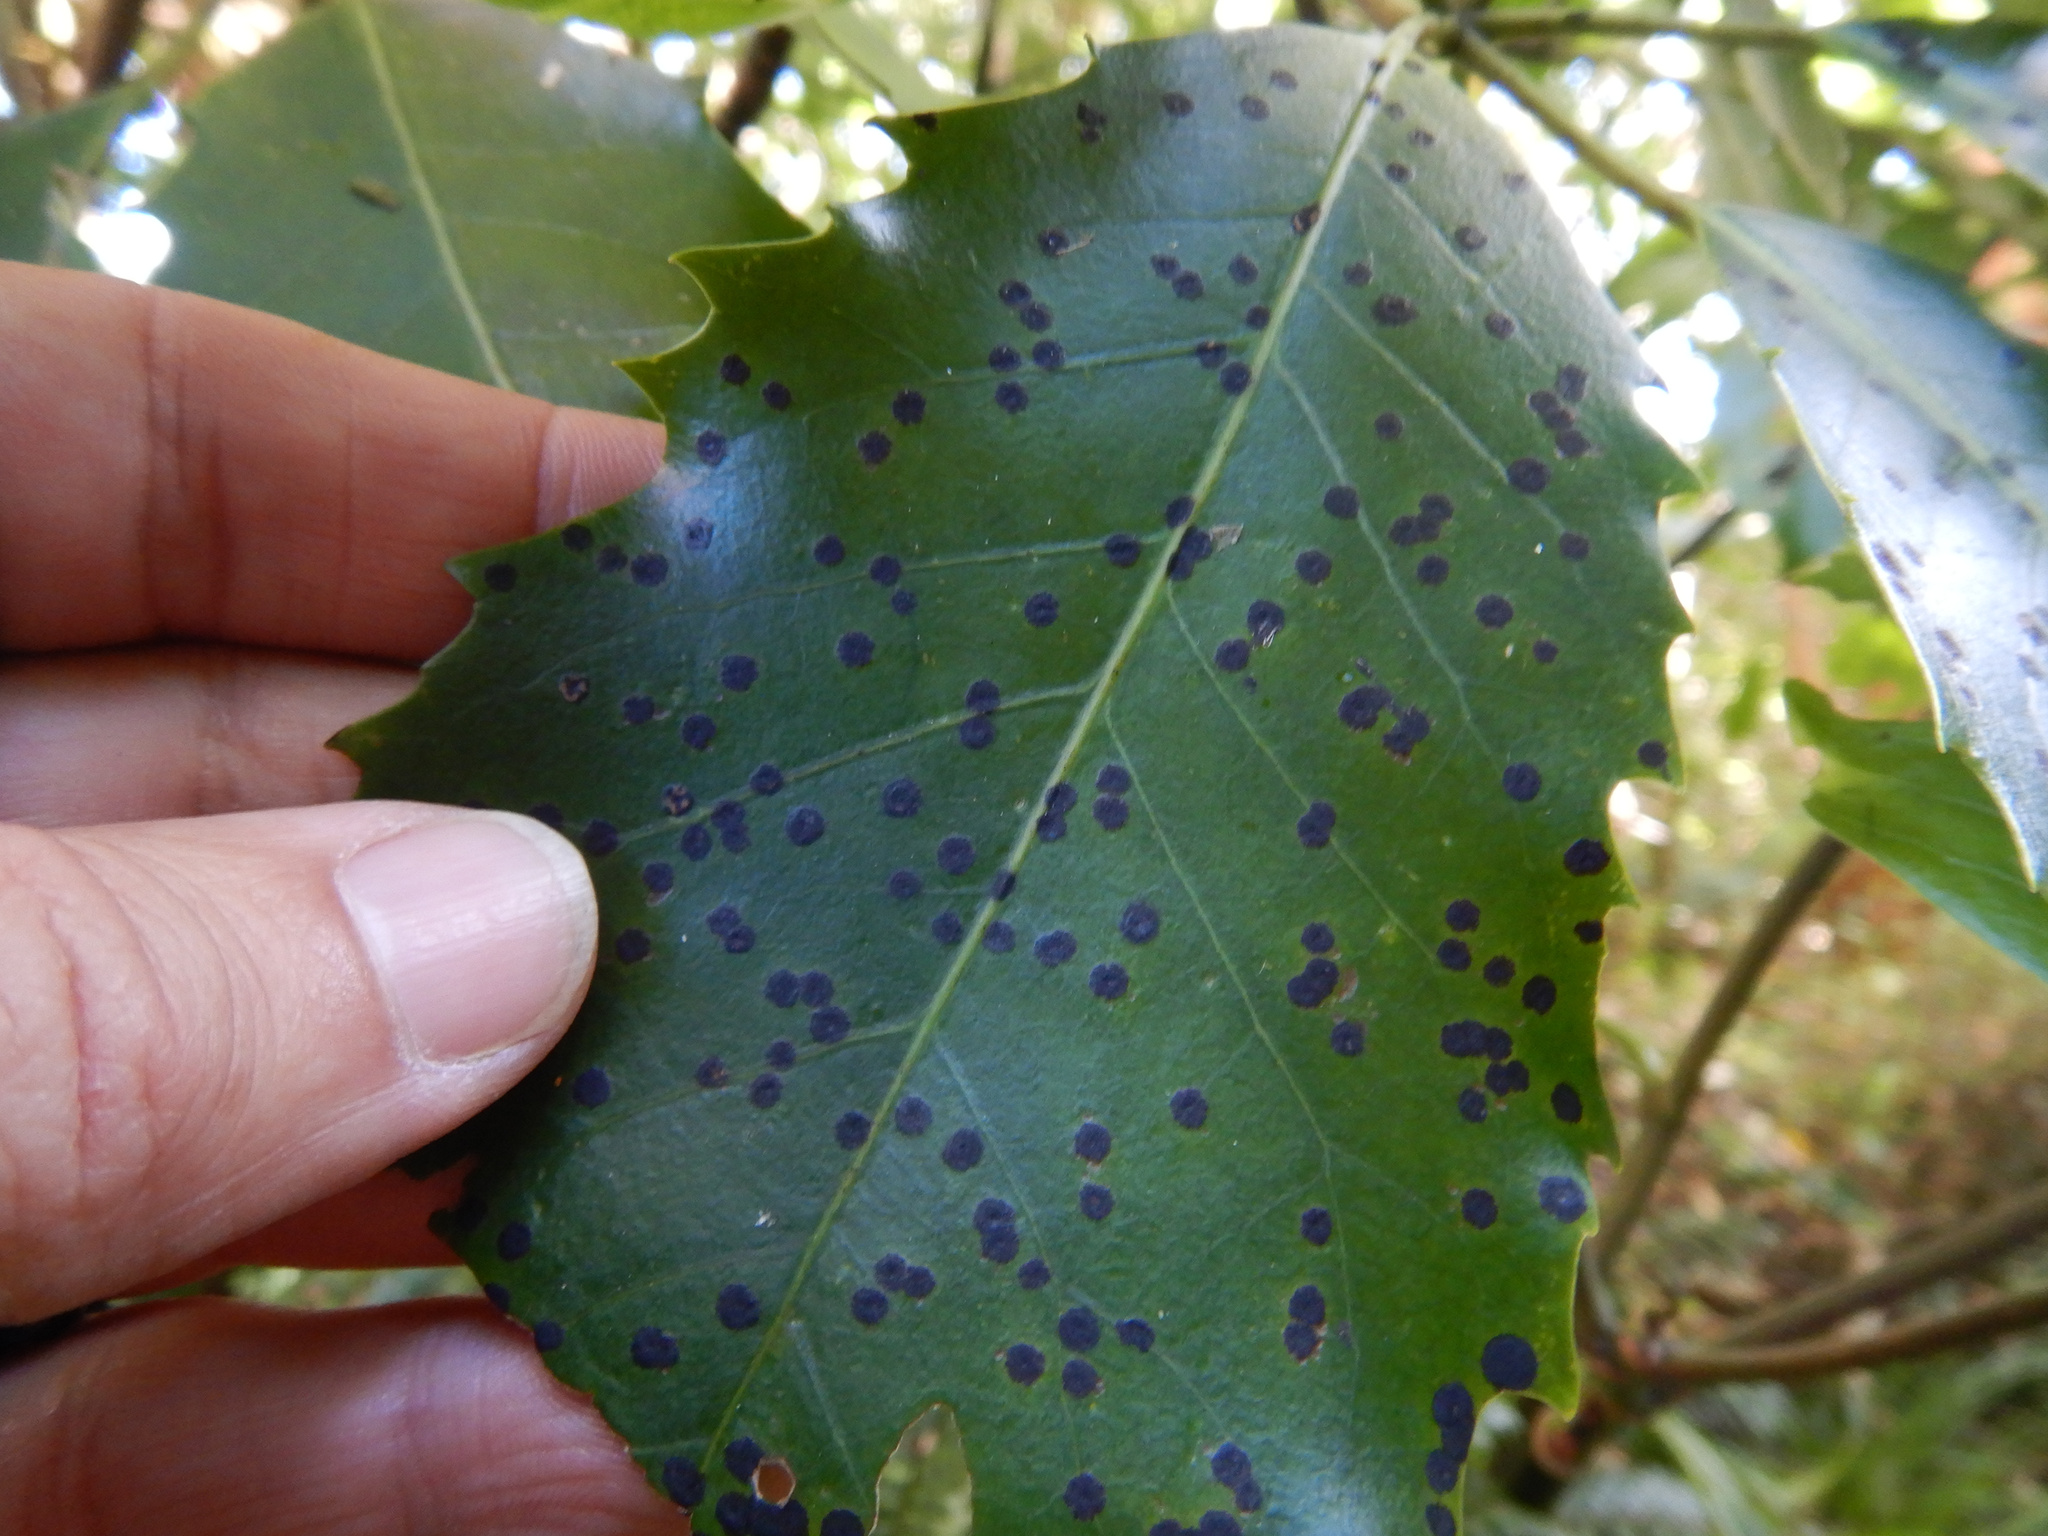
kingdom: Fungi
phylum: Ascomycota
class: Dothideomycetes
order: Asterinales
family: Asterinaceae
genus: Placosoma
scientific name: Placosoma nothopanacis
